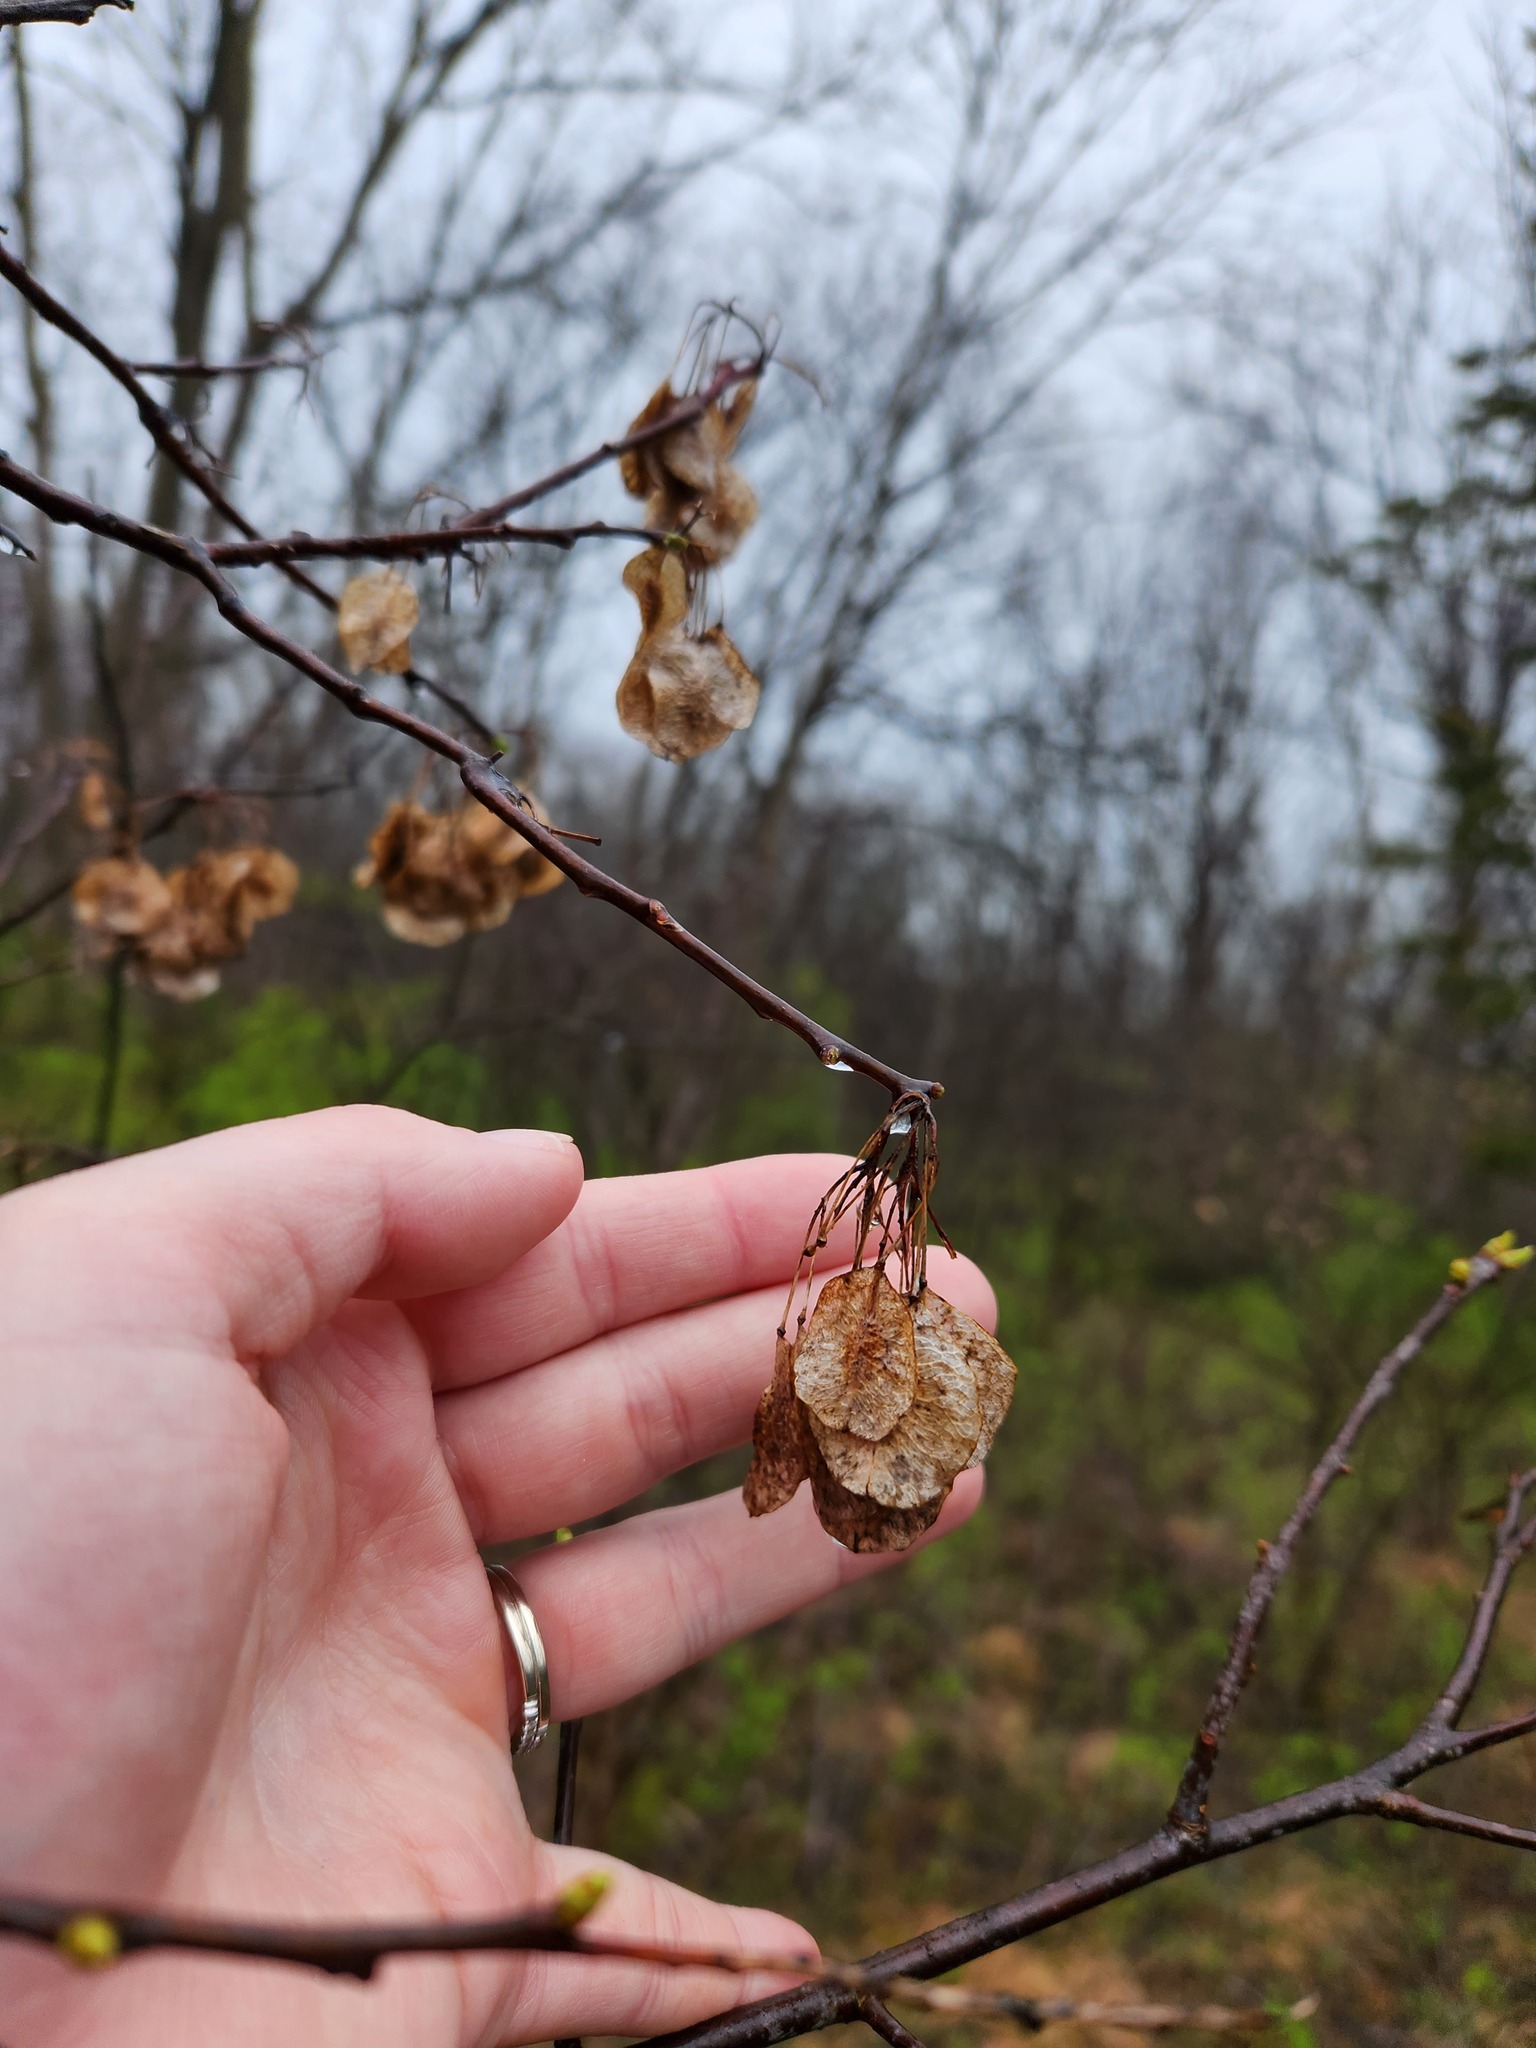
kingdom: Plantae
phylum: Tracheophyta
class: Magnoliopsida
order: Sapindales
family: Rutaceae
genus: Ptelea
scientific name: Ptelea trifoliata
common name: Common hop-tree
